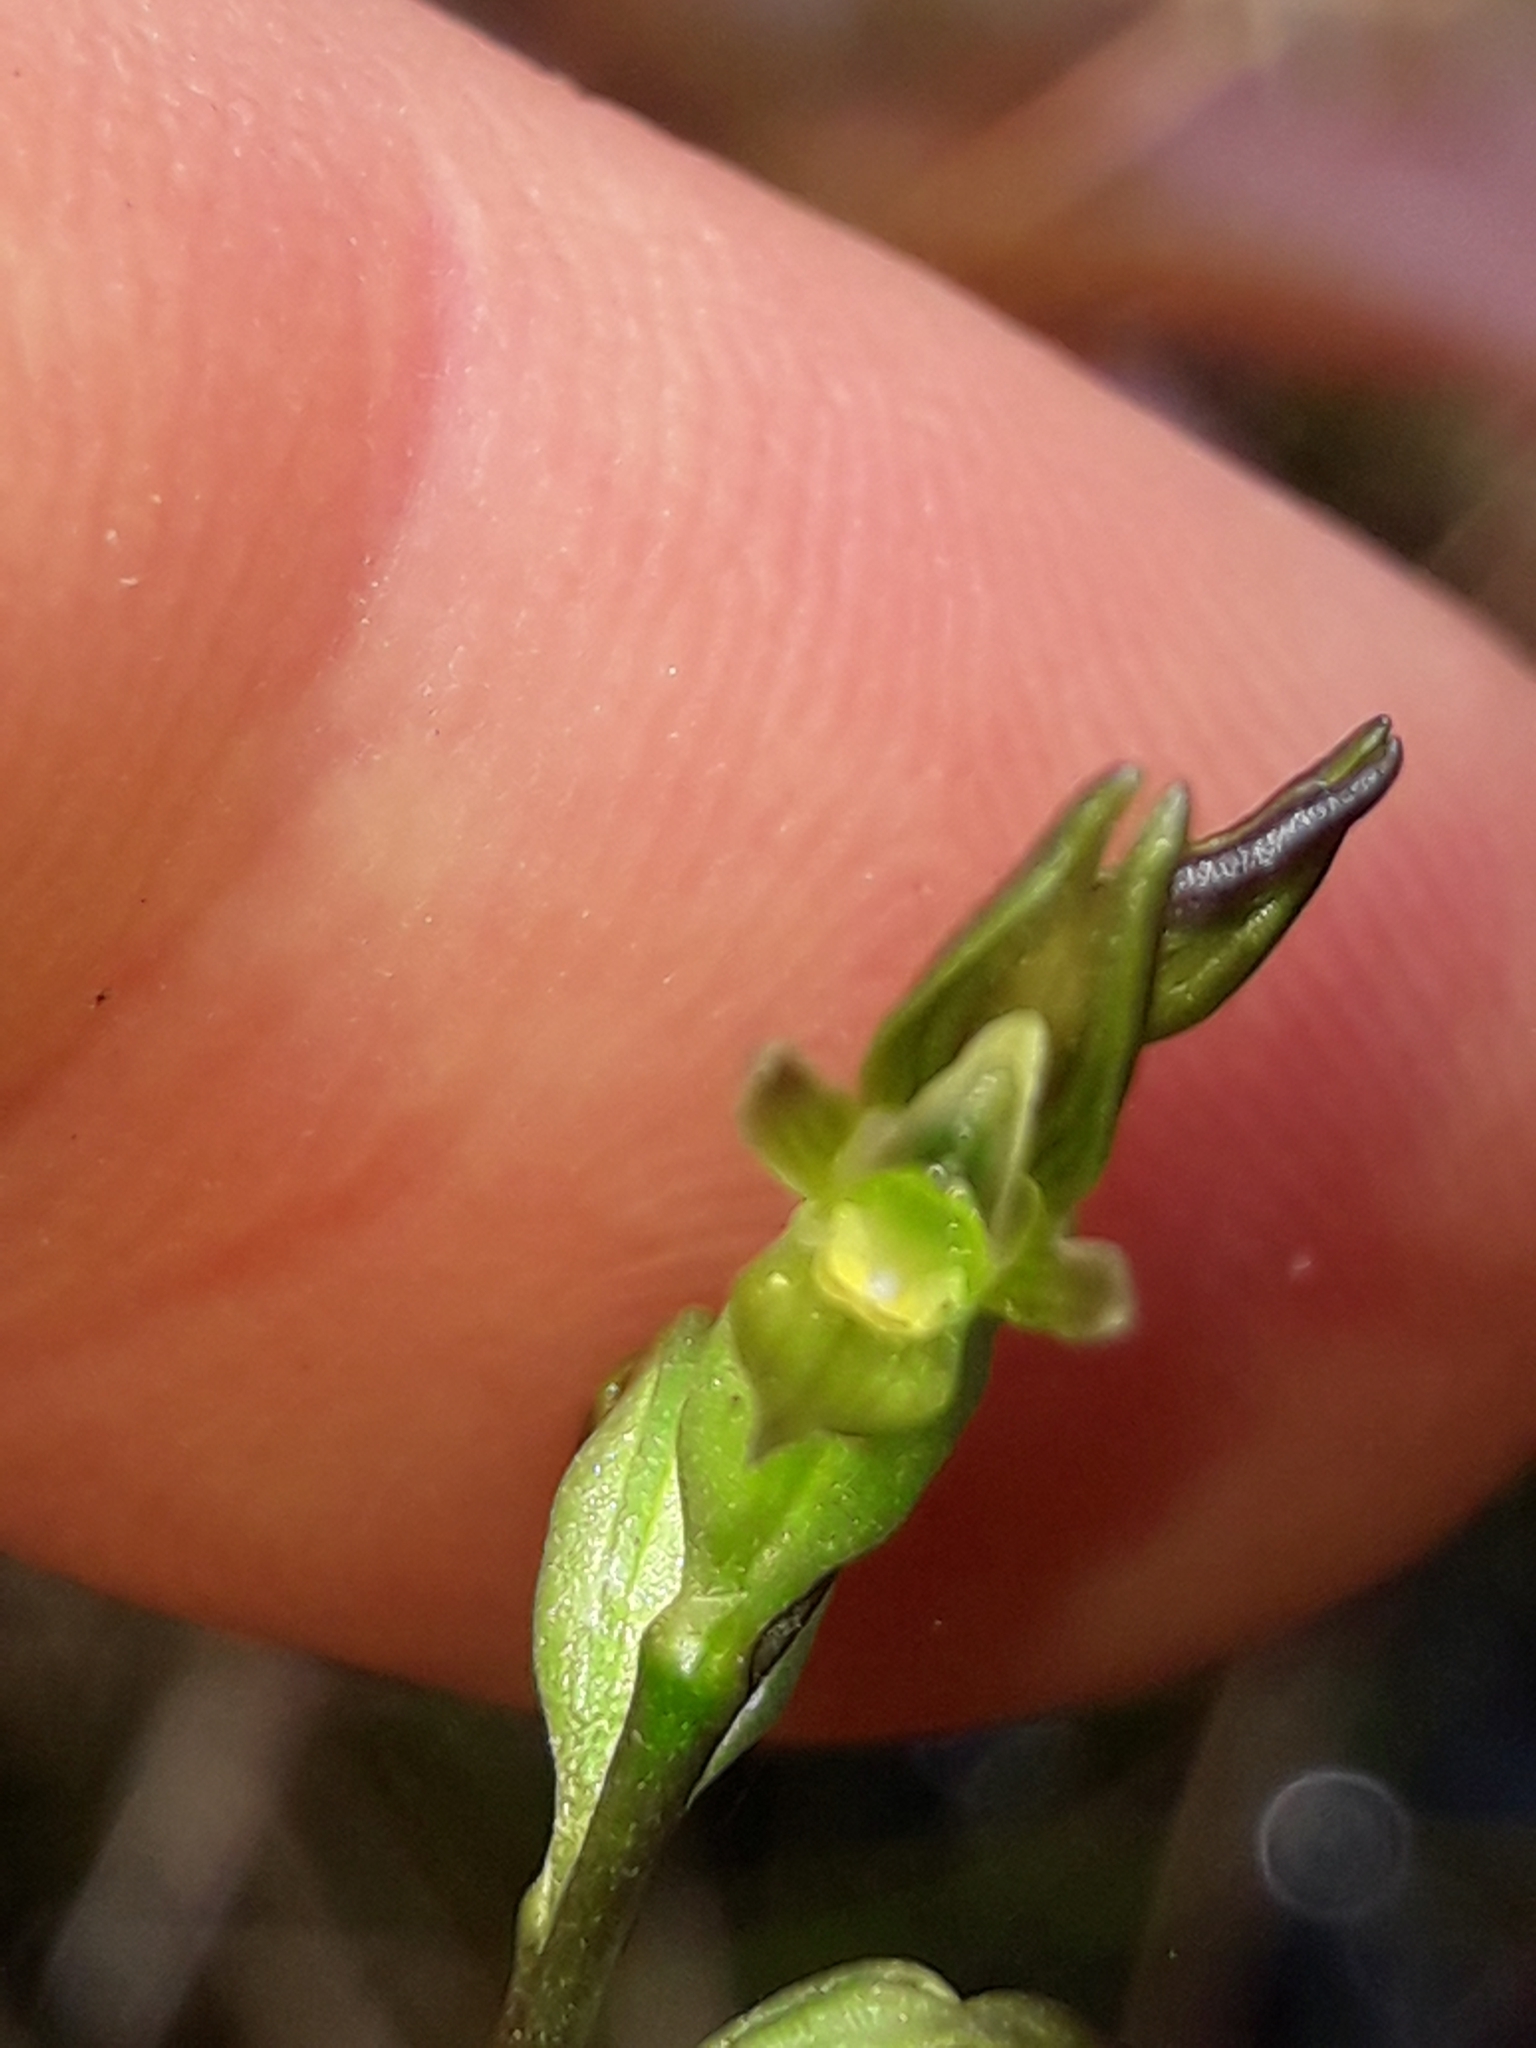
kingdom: Plantae
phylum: Tracheophyta
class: Liliopsida
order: Asparagales
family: Orchidaceae
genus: Prasophyllum
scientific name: Prasophyllum colensoi
